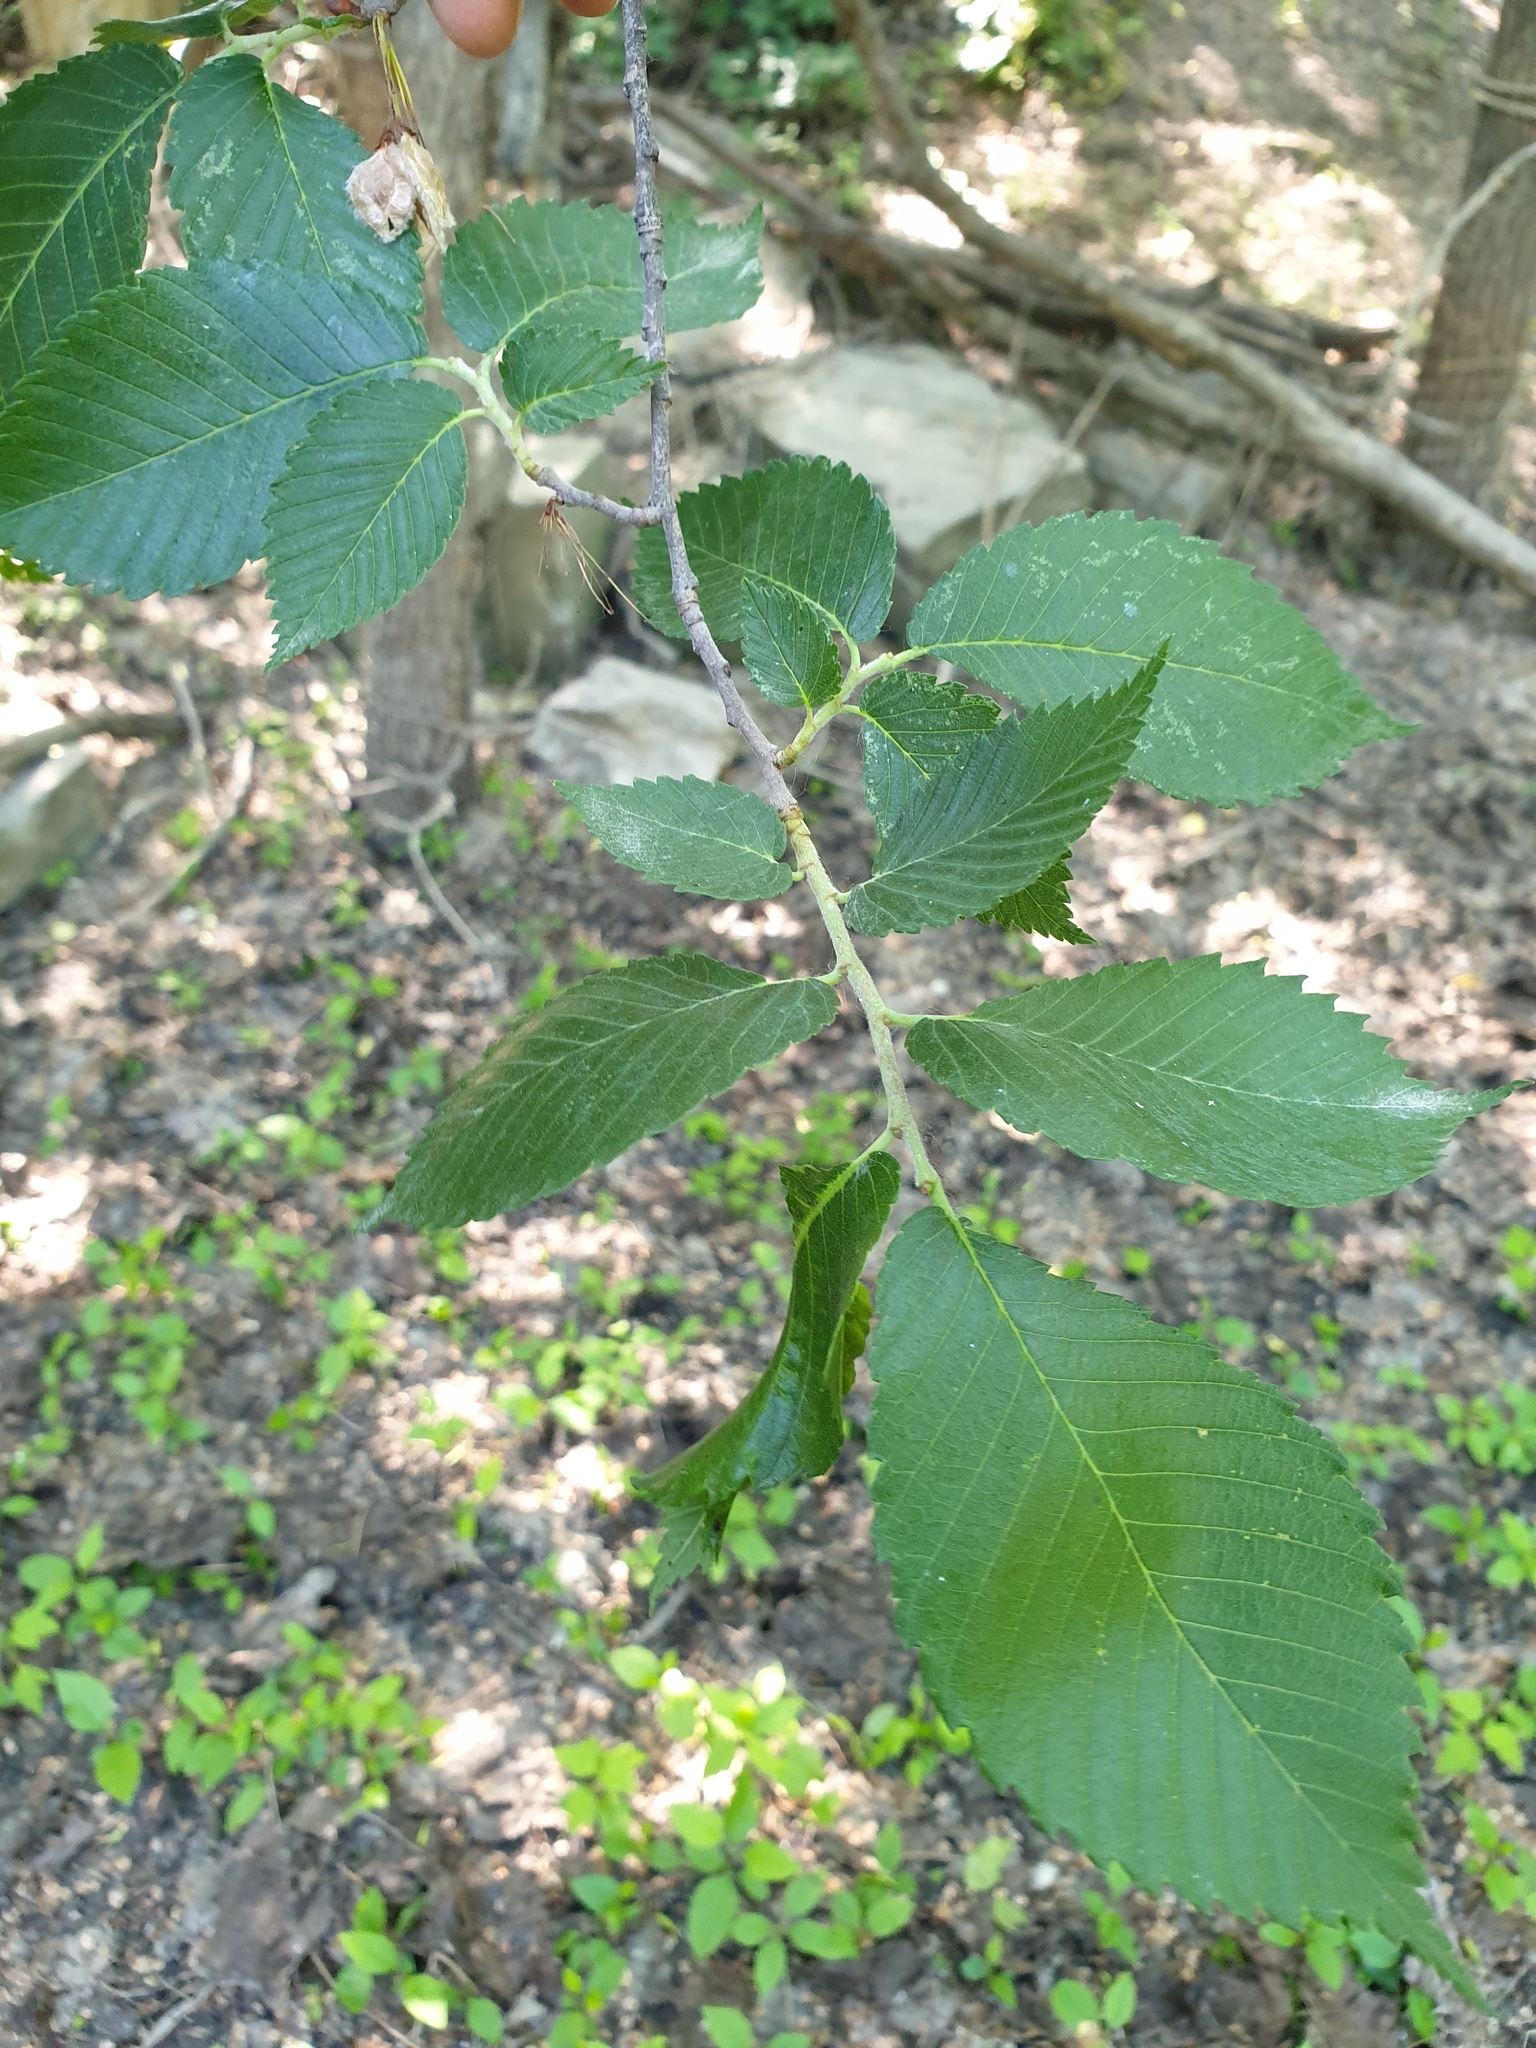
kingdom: Plantae
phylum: Tracheophyta
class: Magnoliopsida
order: Rosales
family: Ulmaceae
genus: Ulmus
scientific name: Ulmus americana
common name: American elm
